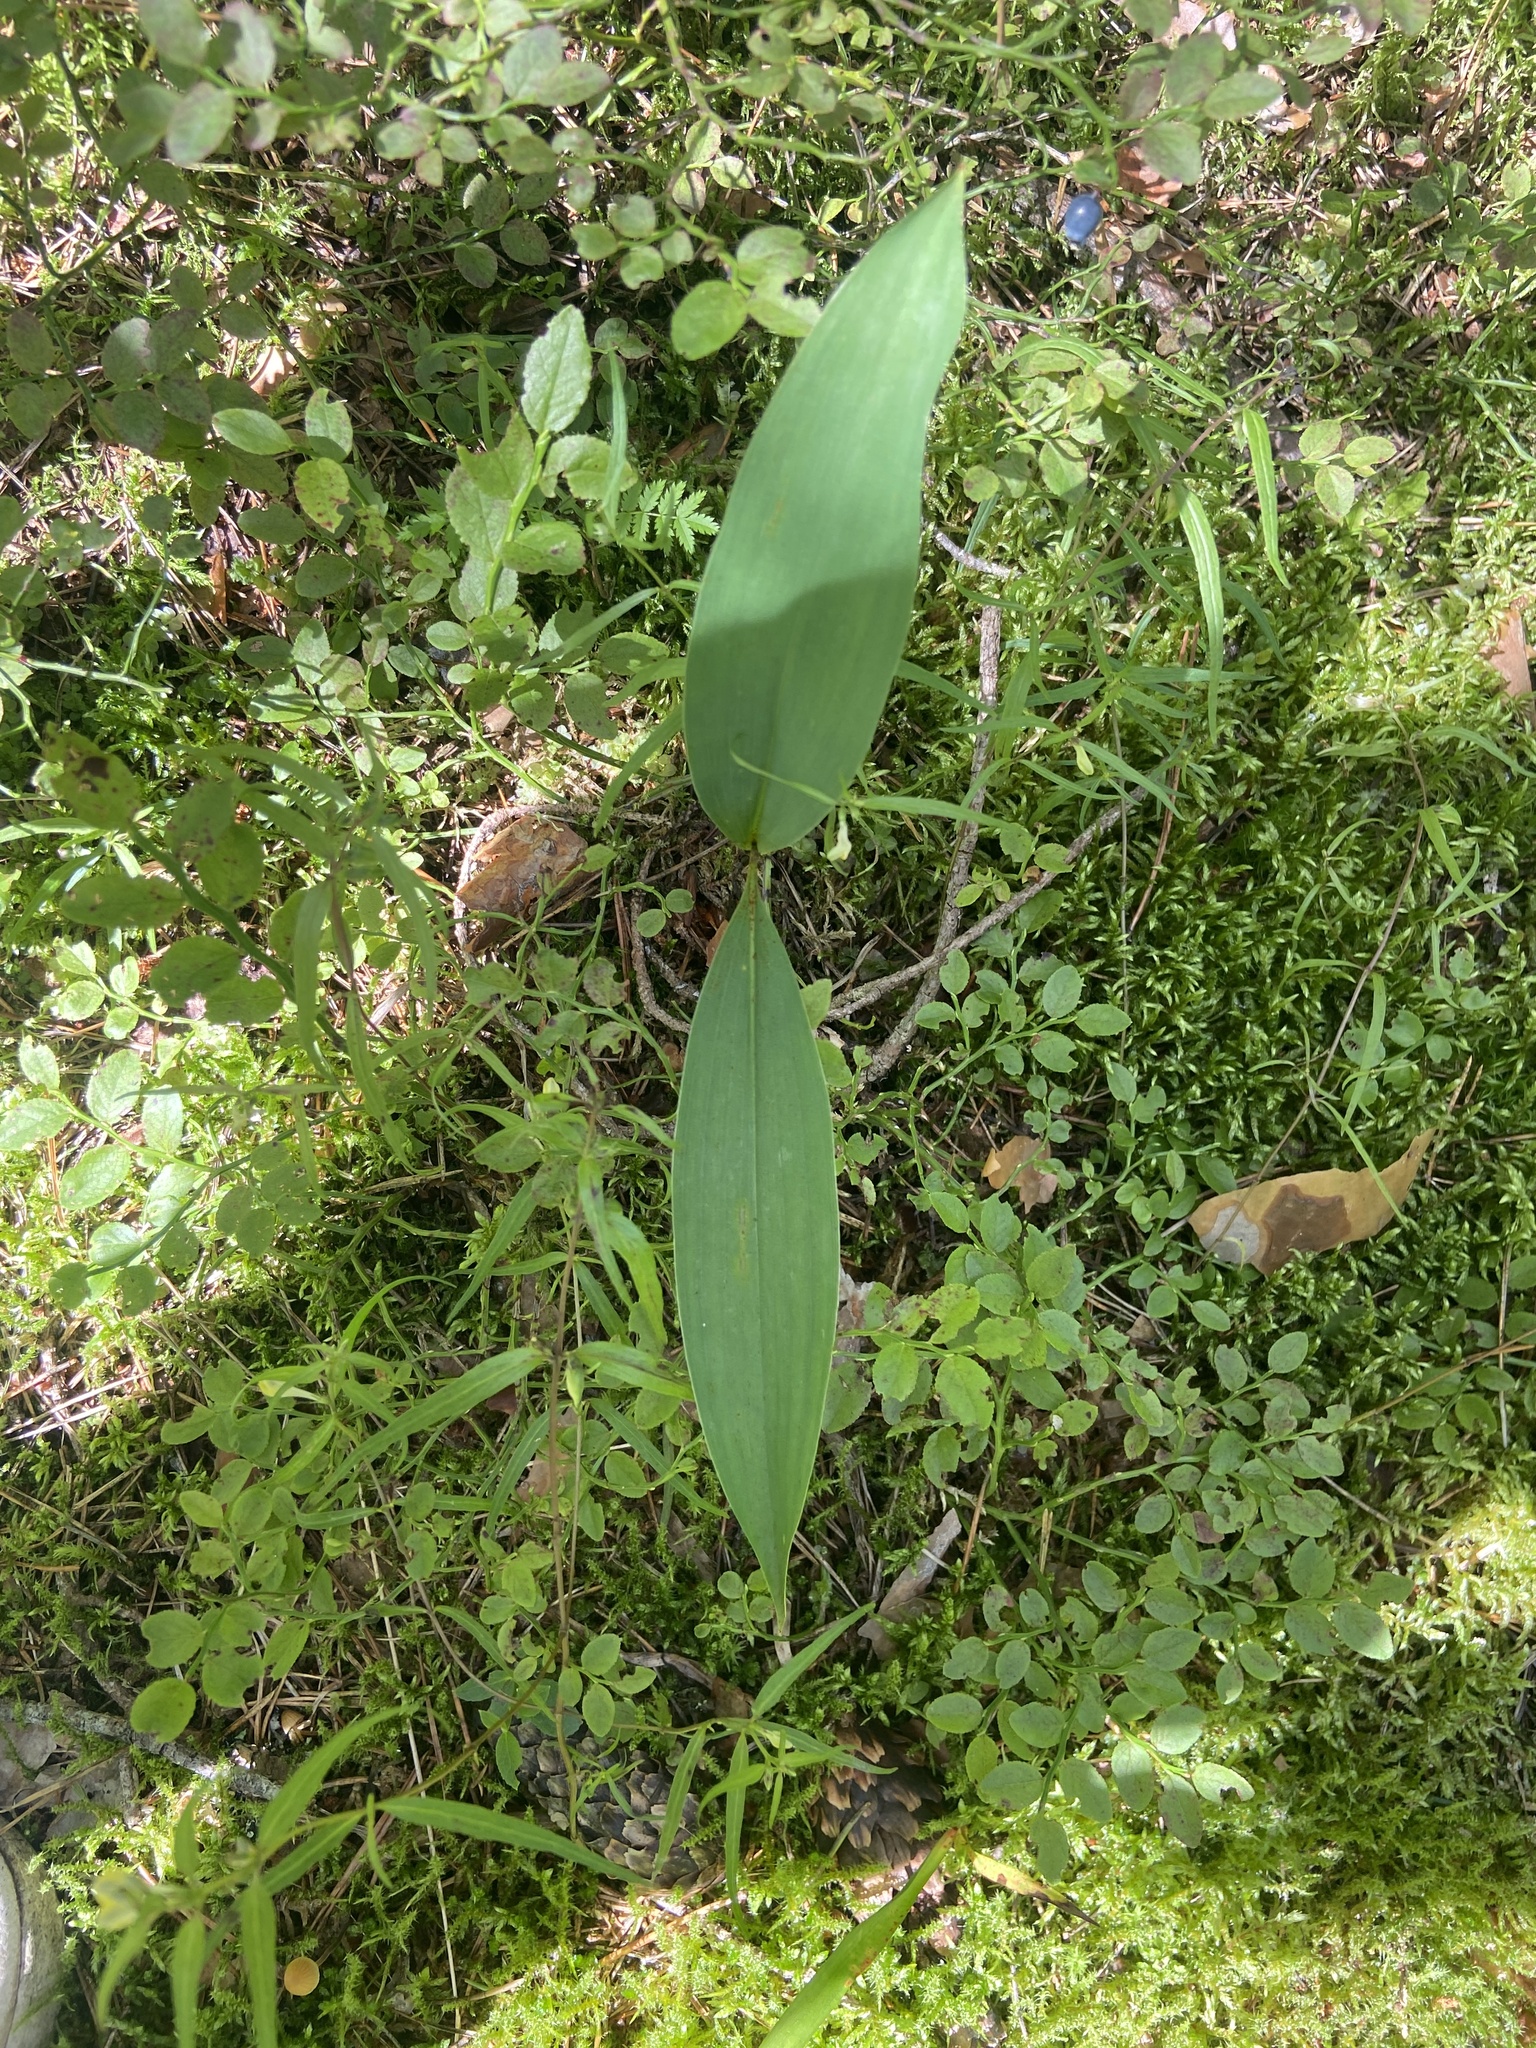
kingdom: Plantae
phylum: Tracheophyta
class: Liliopsida
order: Asparagales
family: Asparagaceae
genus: Convallaria
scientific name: Convallaria majalis
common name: Lily-of-the-valley
